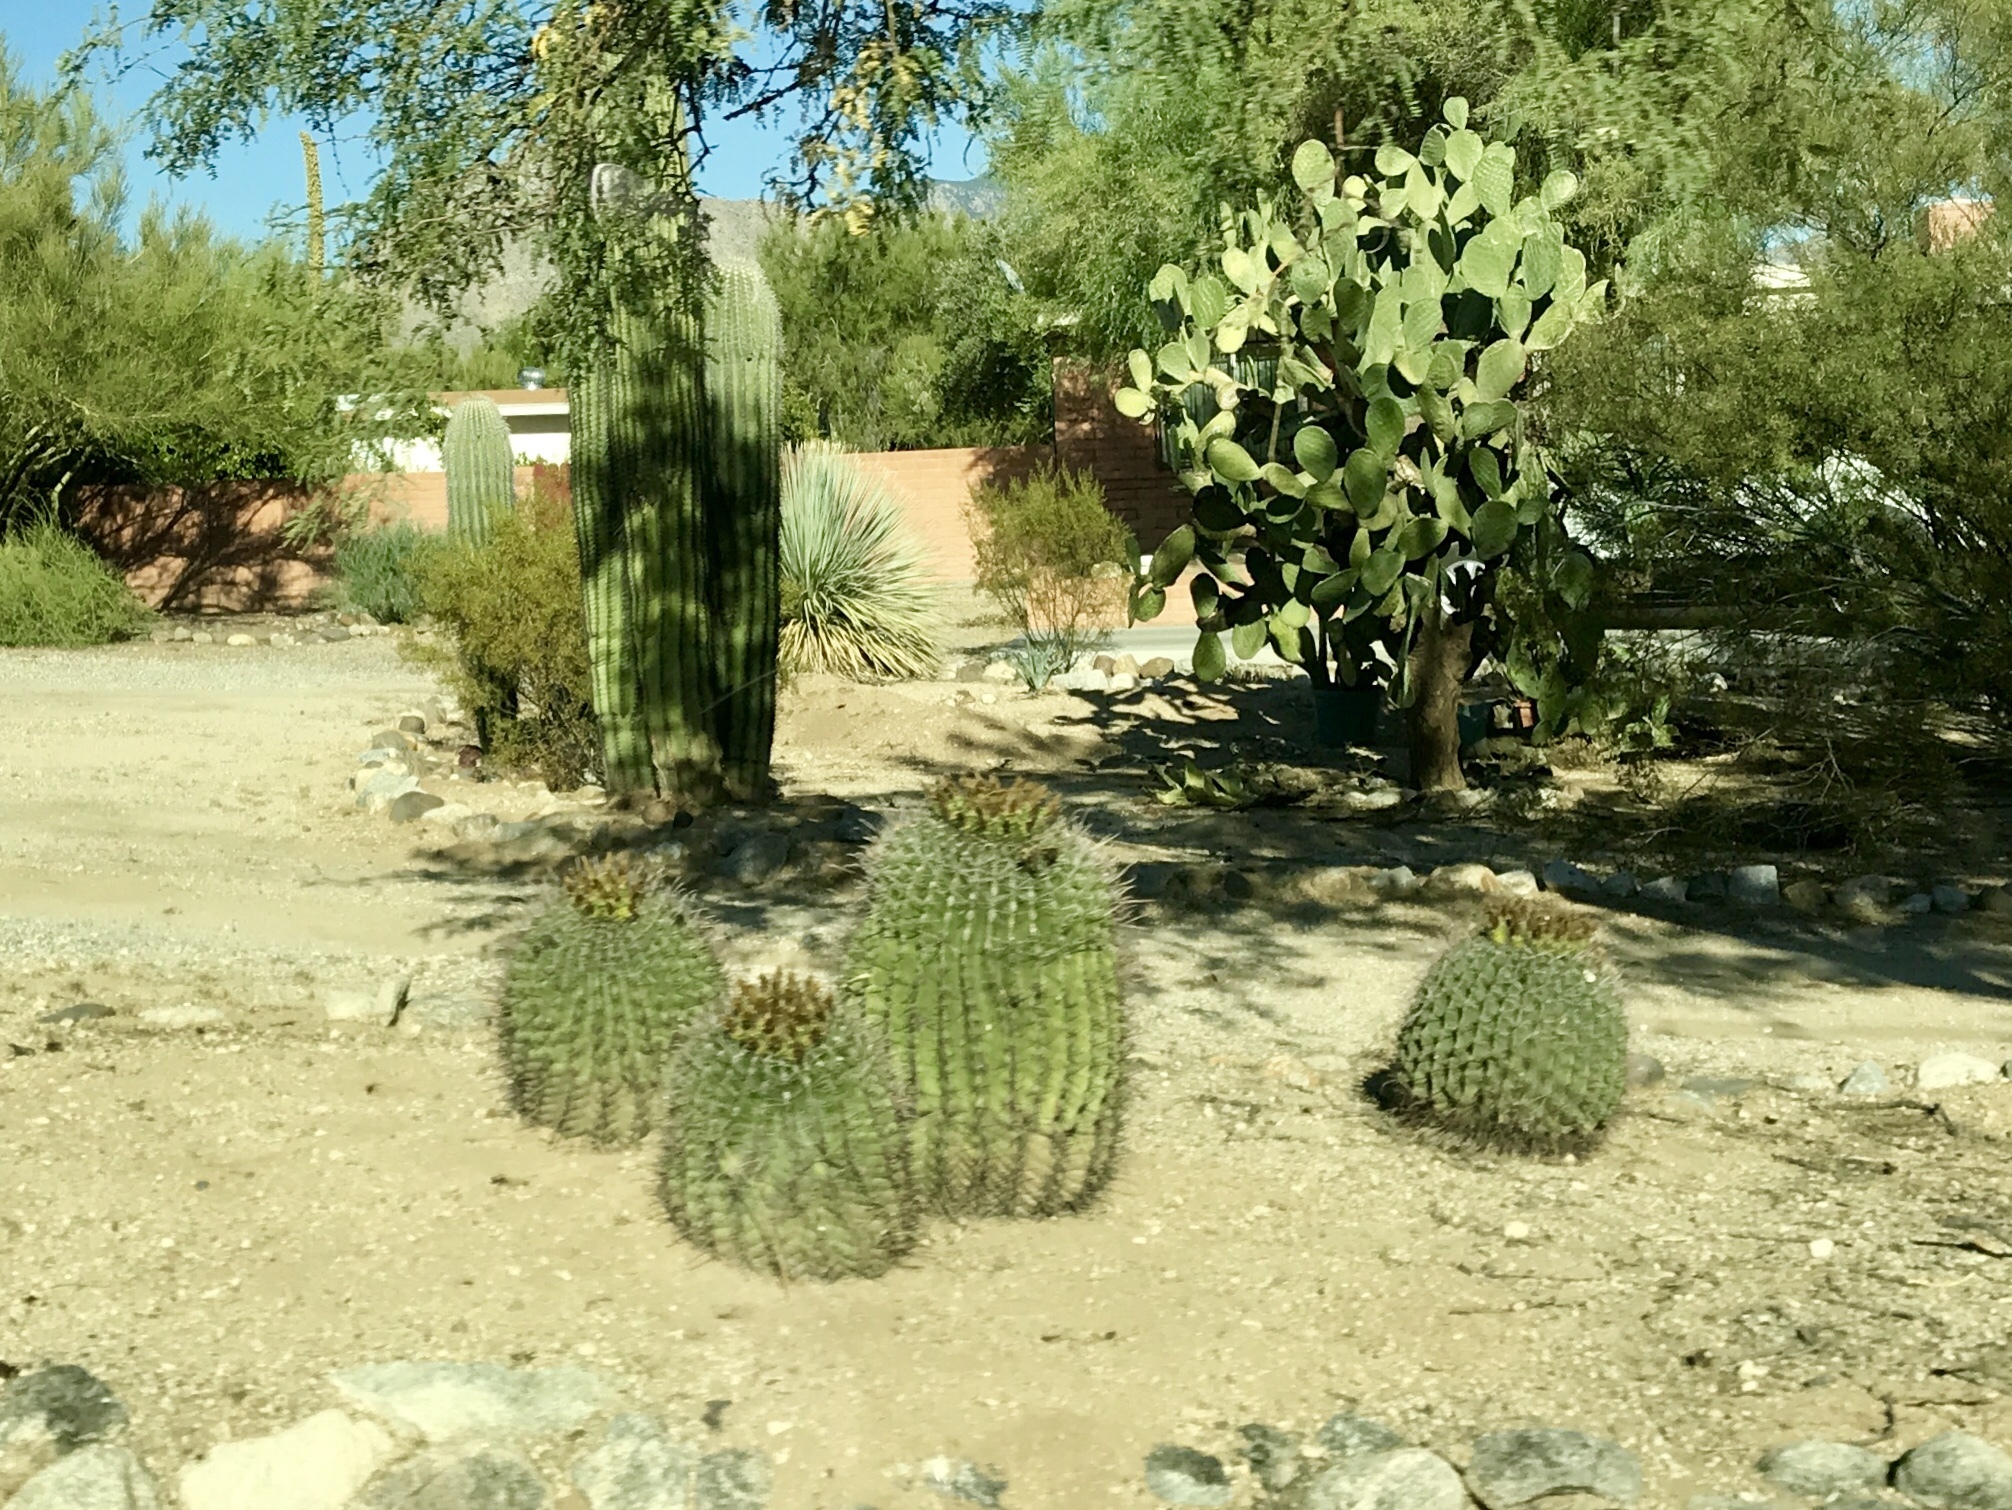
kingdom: Plantae
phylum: Tracheophyta
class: Magnoliopsida
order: Caryophyllales
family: Cactaceae
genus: Ferocactus
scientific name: Ferocactus wislizeni
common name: Candy barrel cactus
